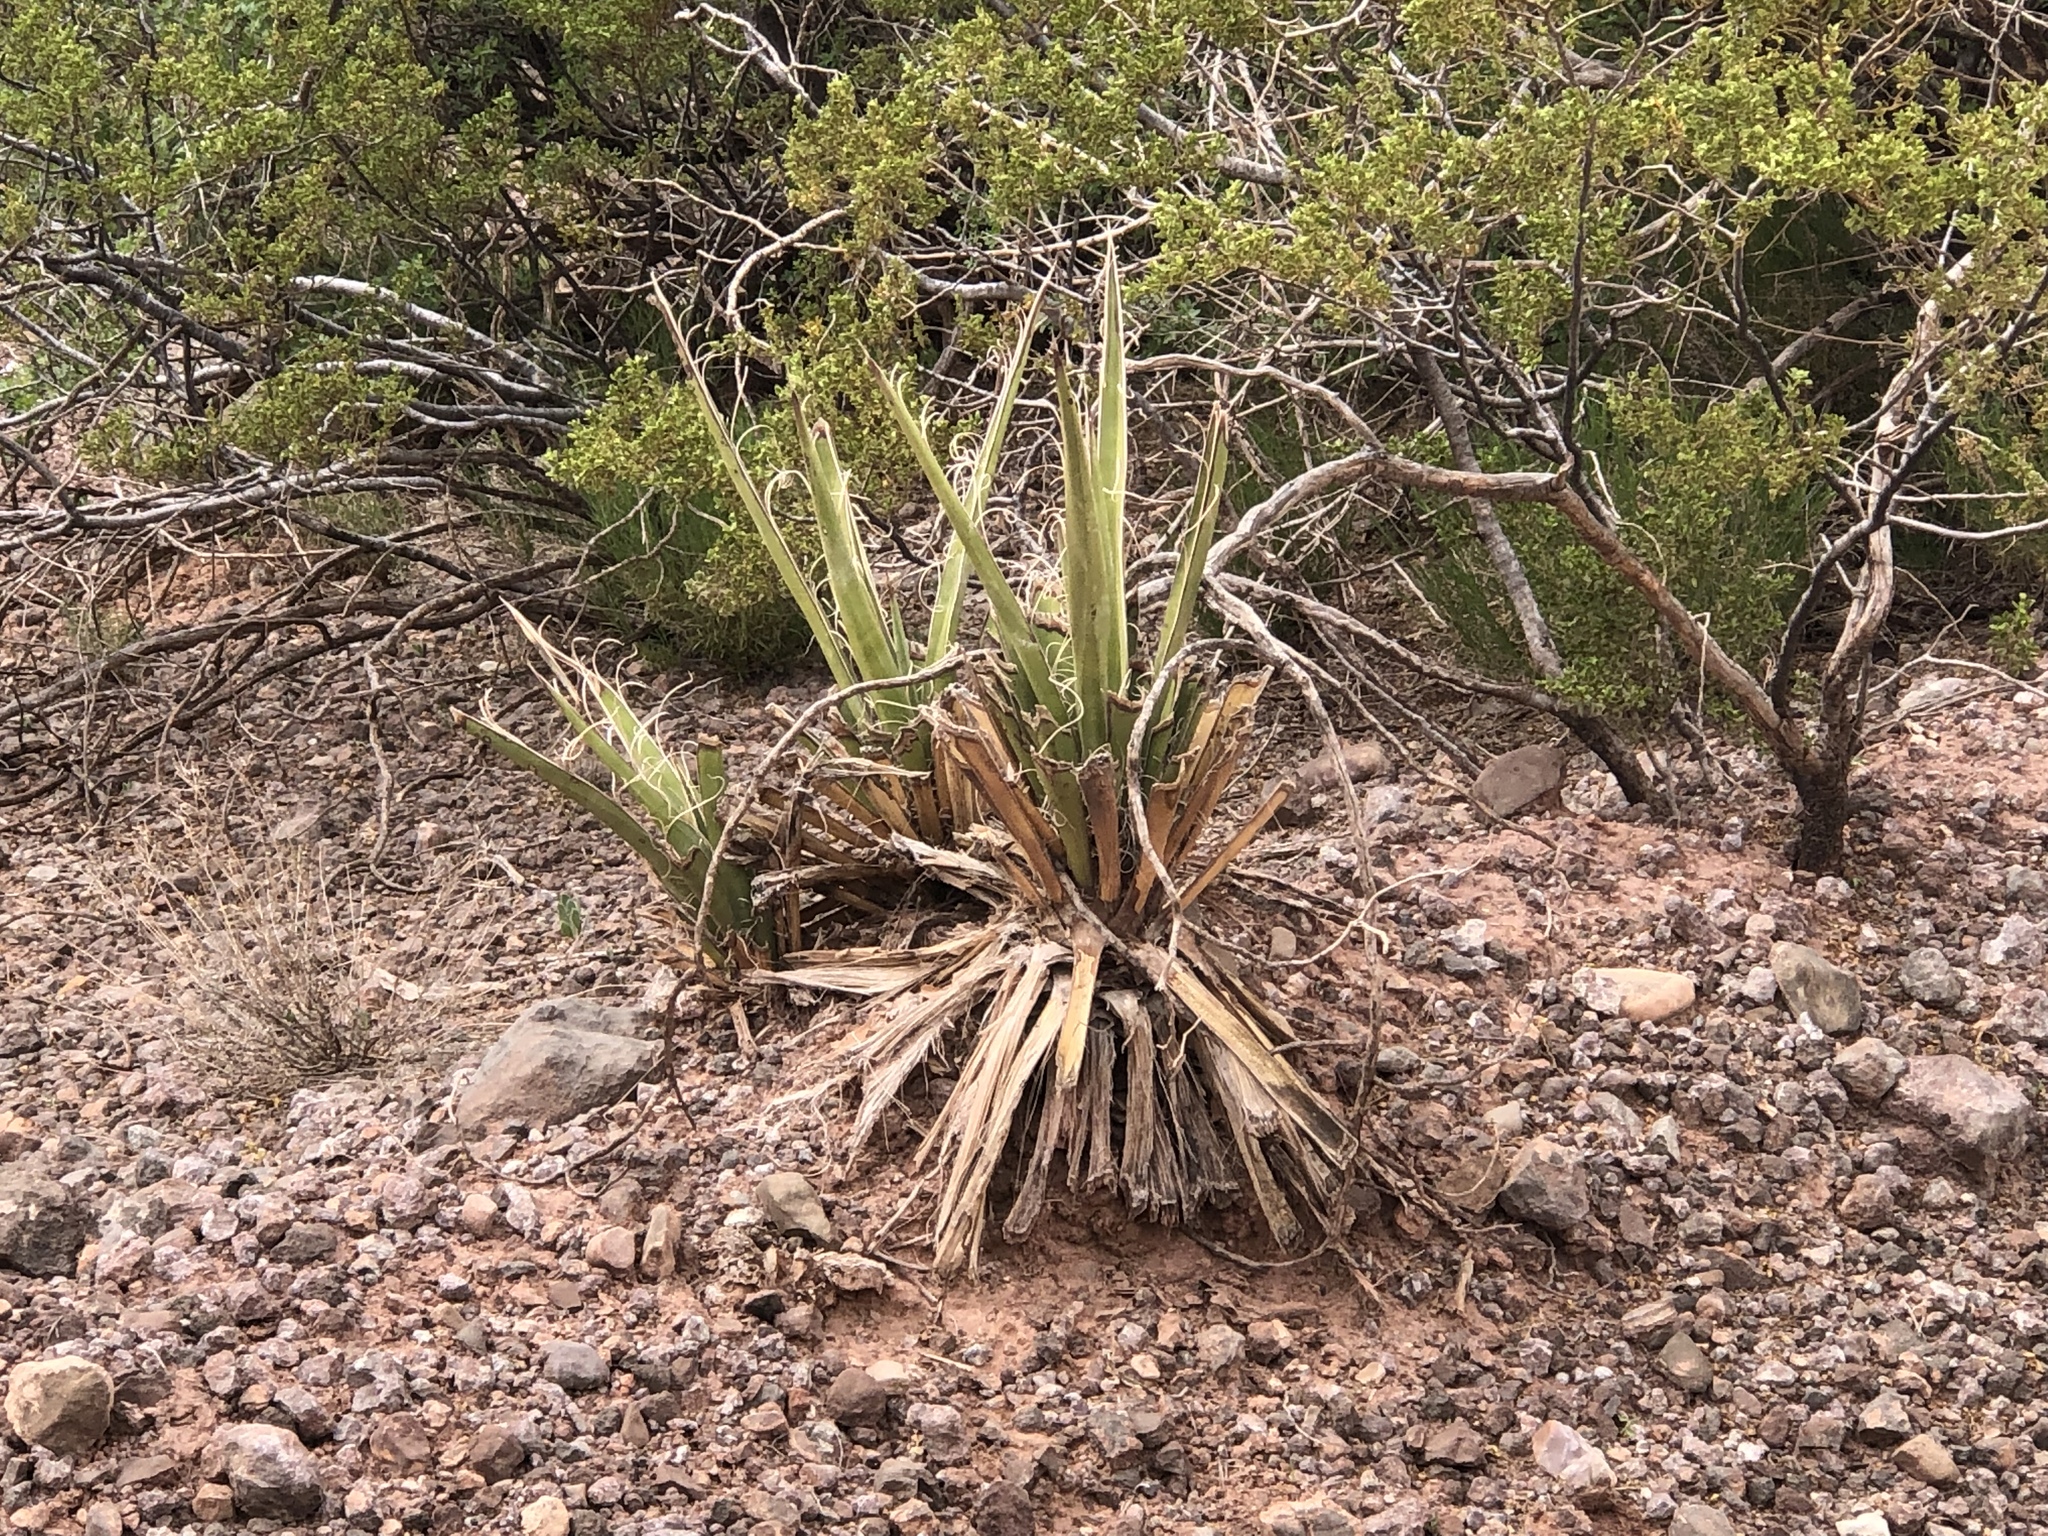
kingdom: Plantae
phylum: Tracheophyta
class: Liliopsida
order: Asparagales
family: Asparagaceae
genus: Yucca
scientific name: Yucca baccata
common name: Banana yucca
